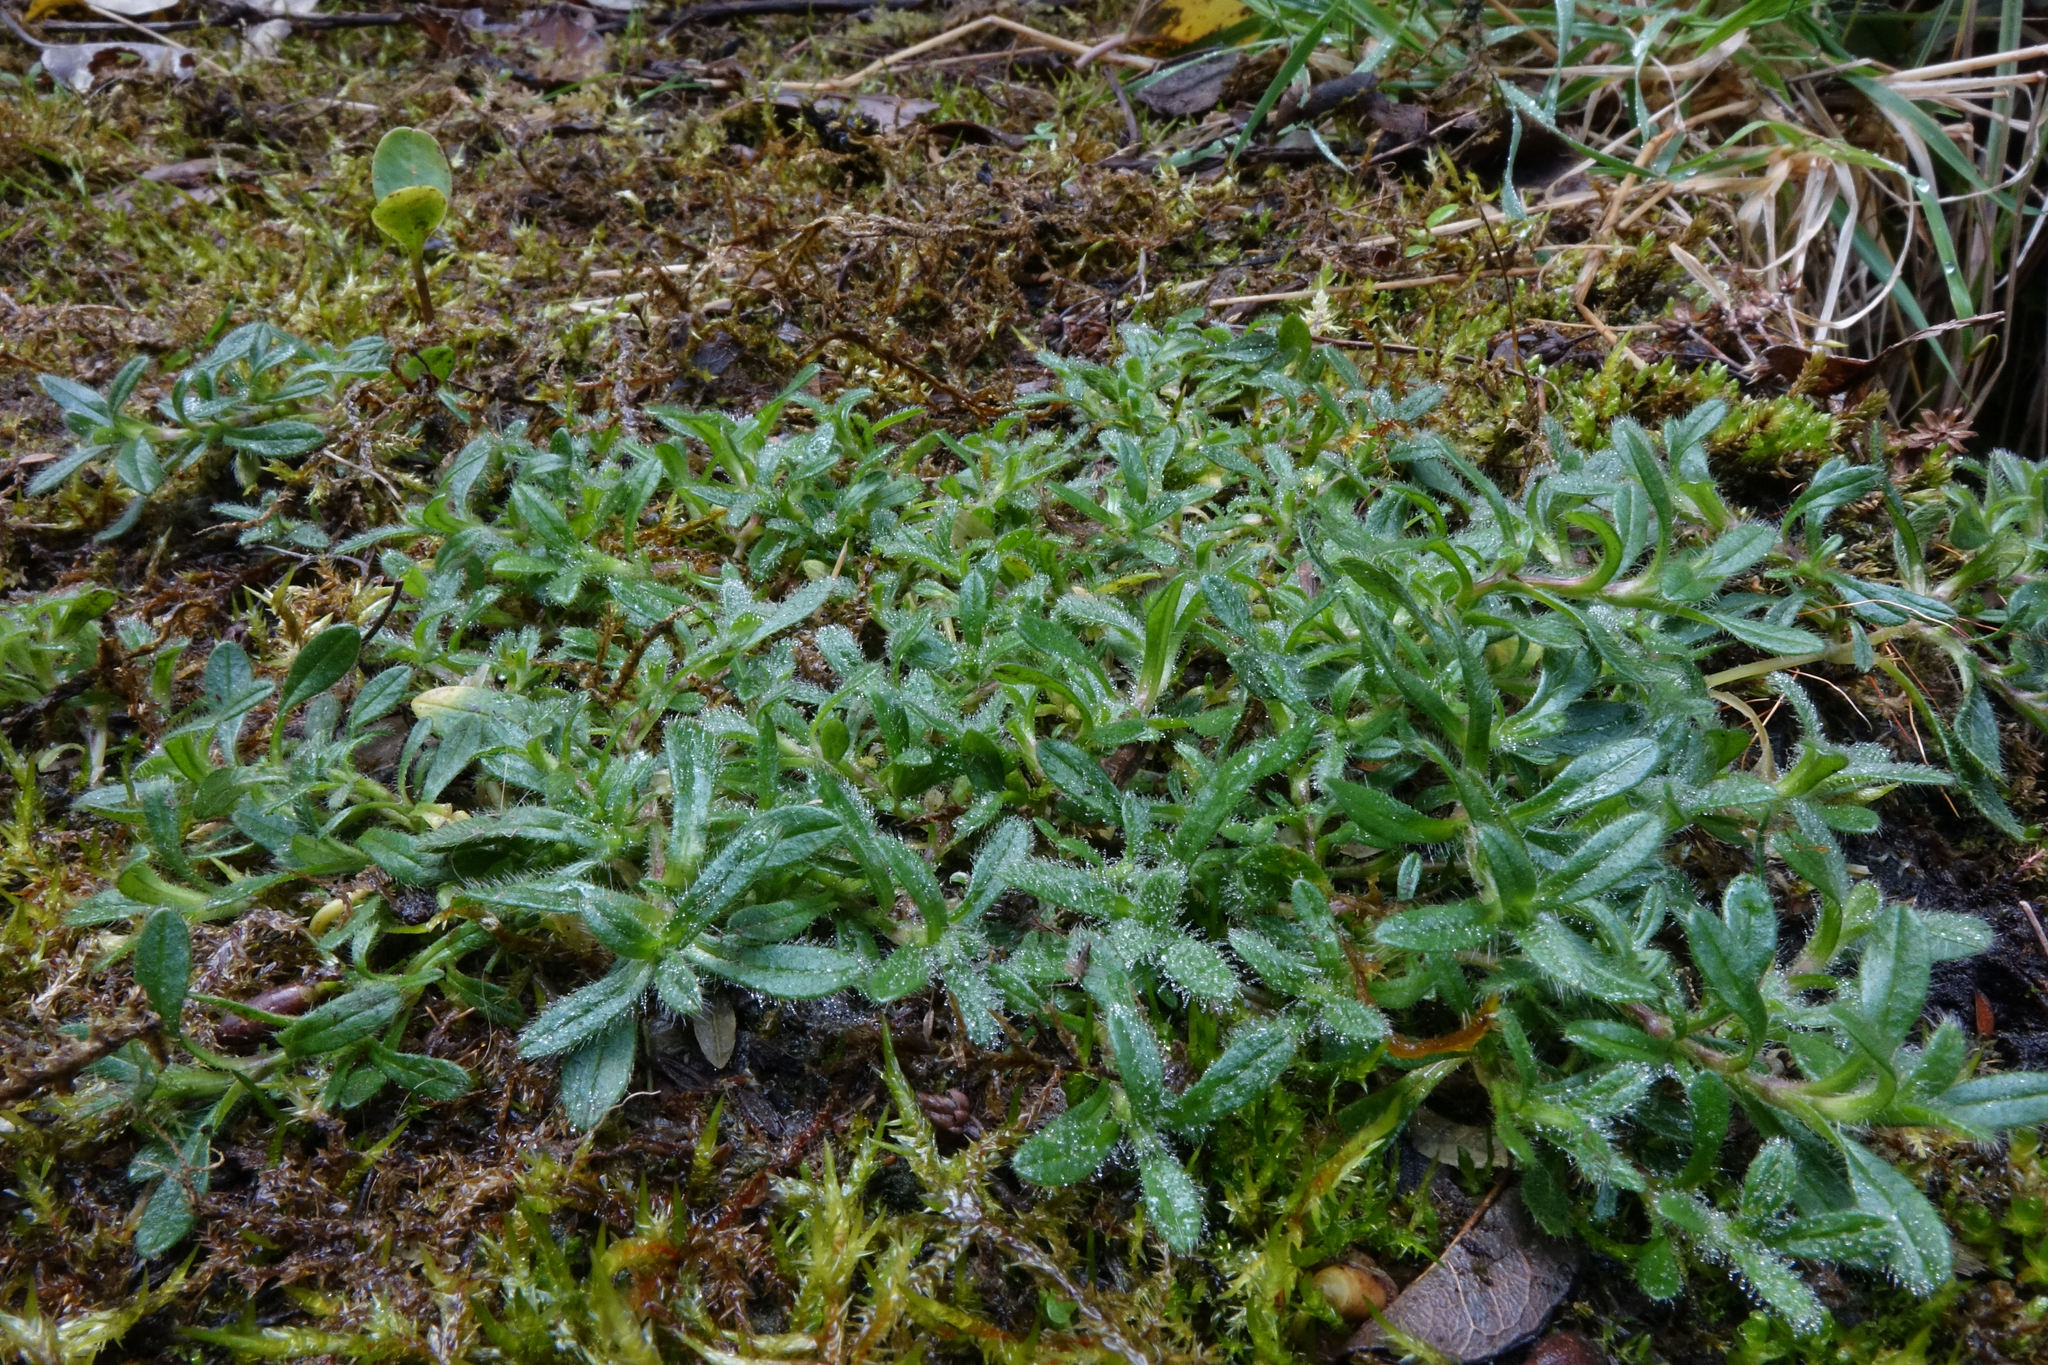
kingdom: Plantae
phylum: Tracheophyta
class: Magnoliopsida
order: Caryophyllales
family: Caryophyllaceae
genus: Cerastium
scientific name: Cerastium fontanum
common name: Common mouse-ear
